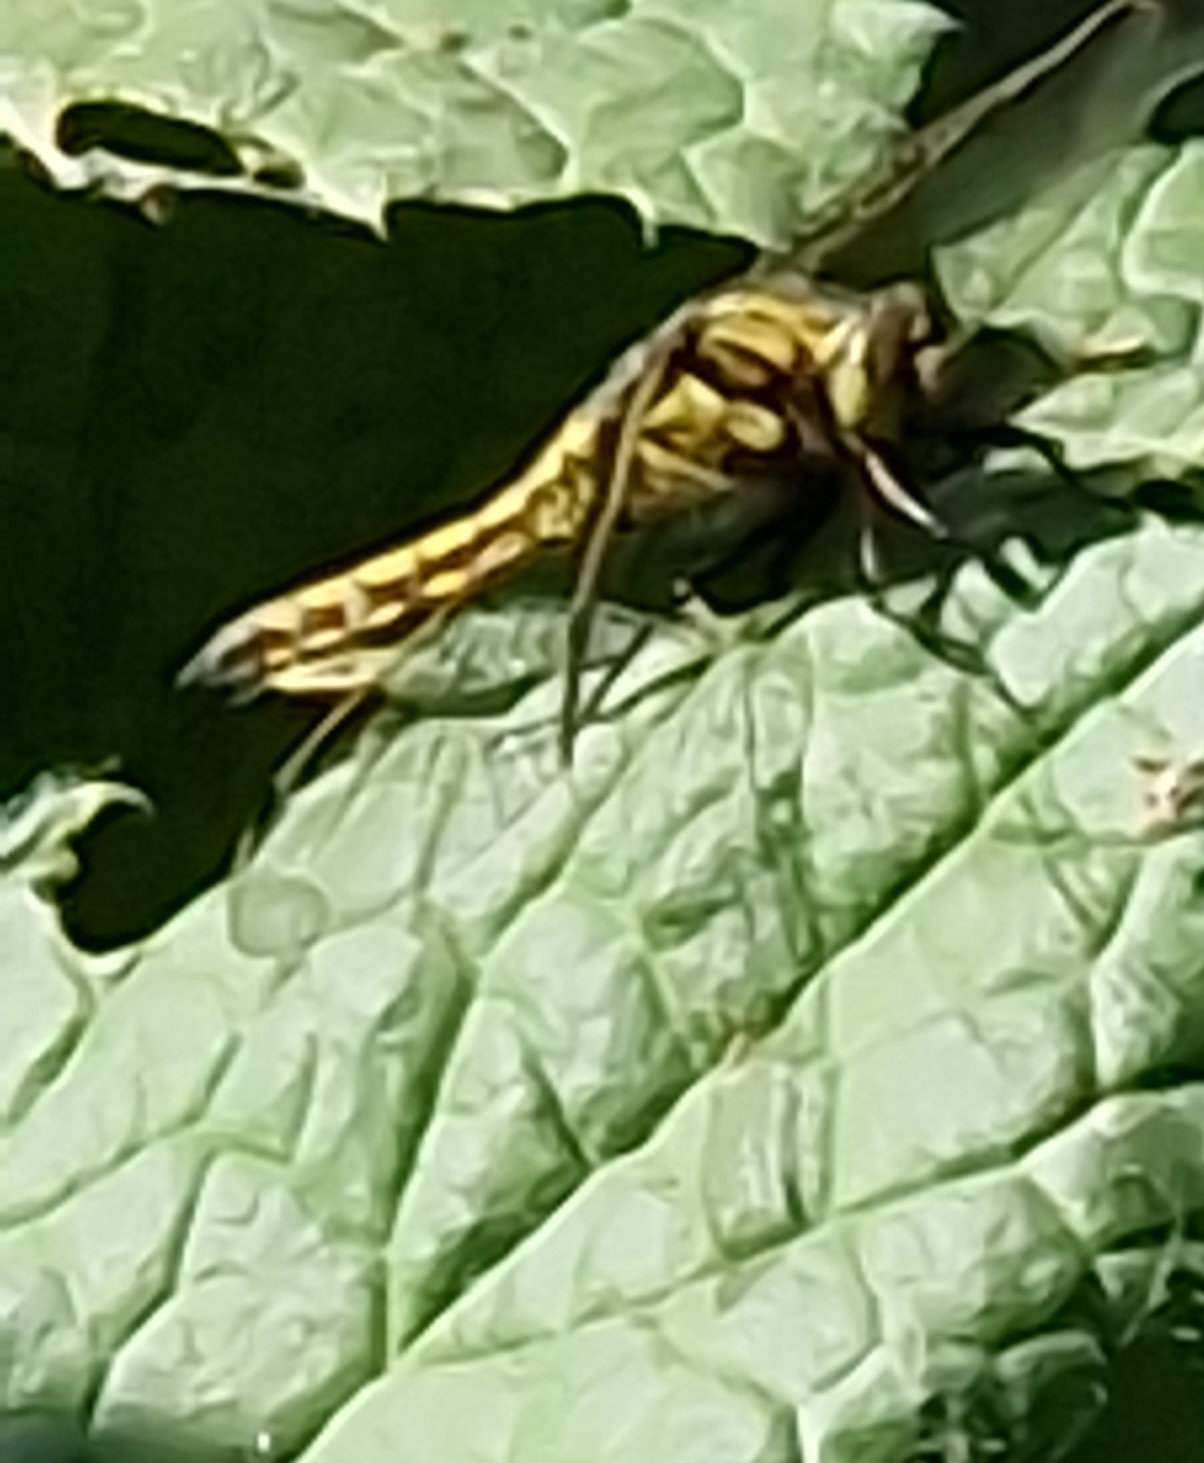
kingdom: Animalia
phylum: Arthropoda
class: Insecta
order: Odonata
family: Libellulidae
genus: Orthetrum
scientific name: Orthetrum cancellatum
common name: Black-tailed skimmer
